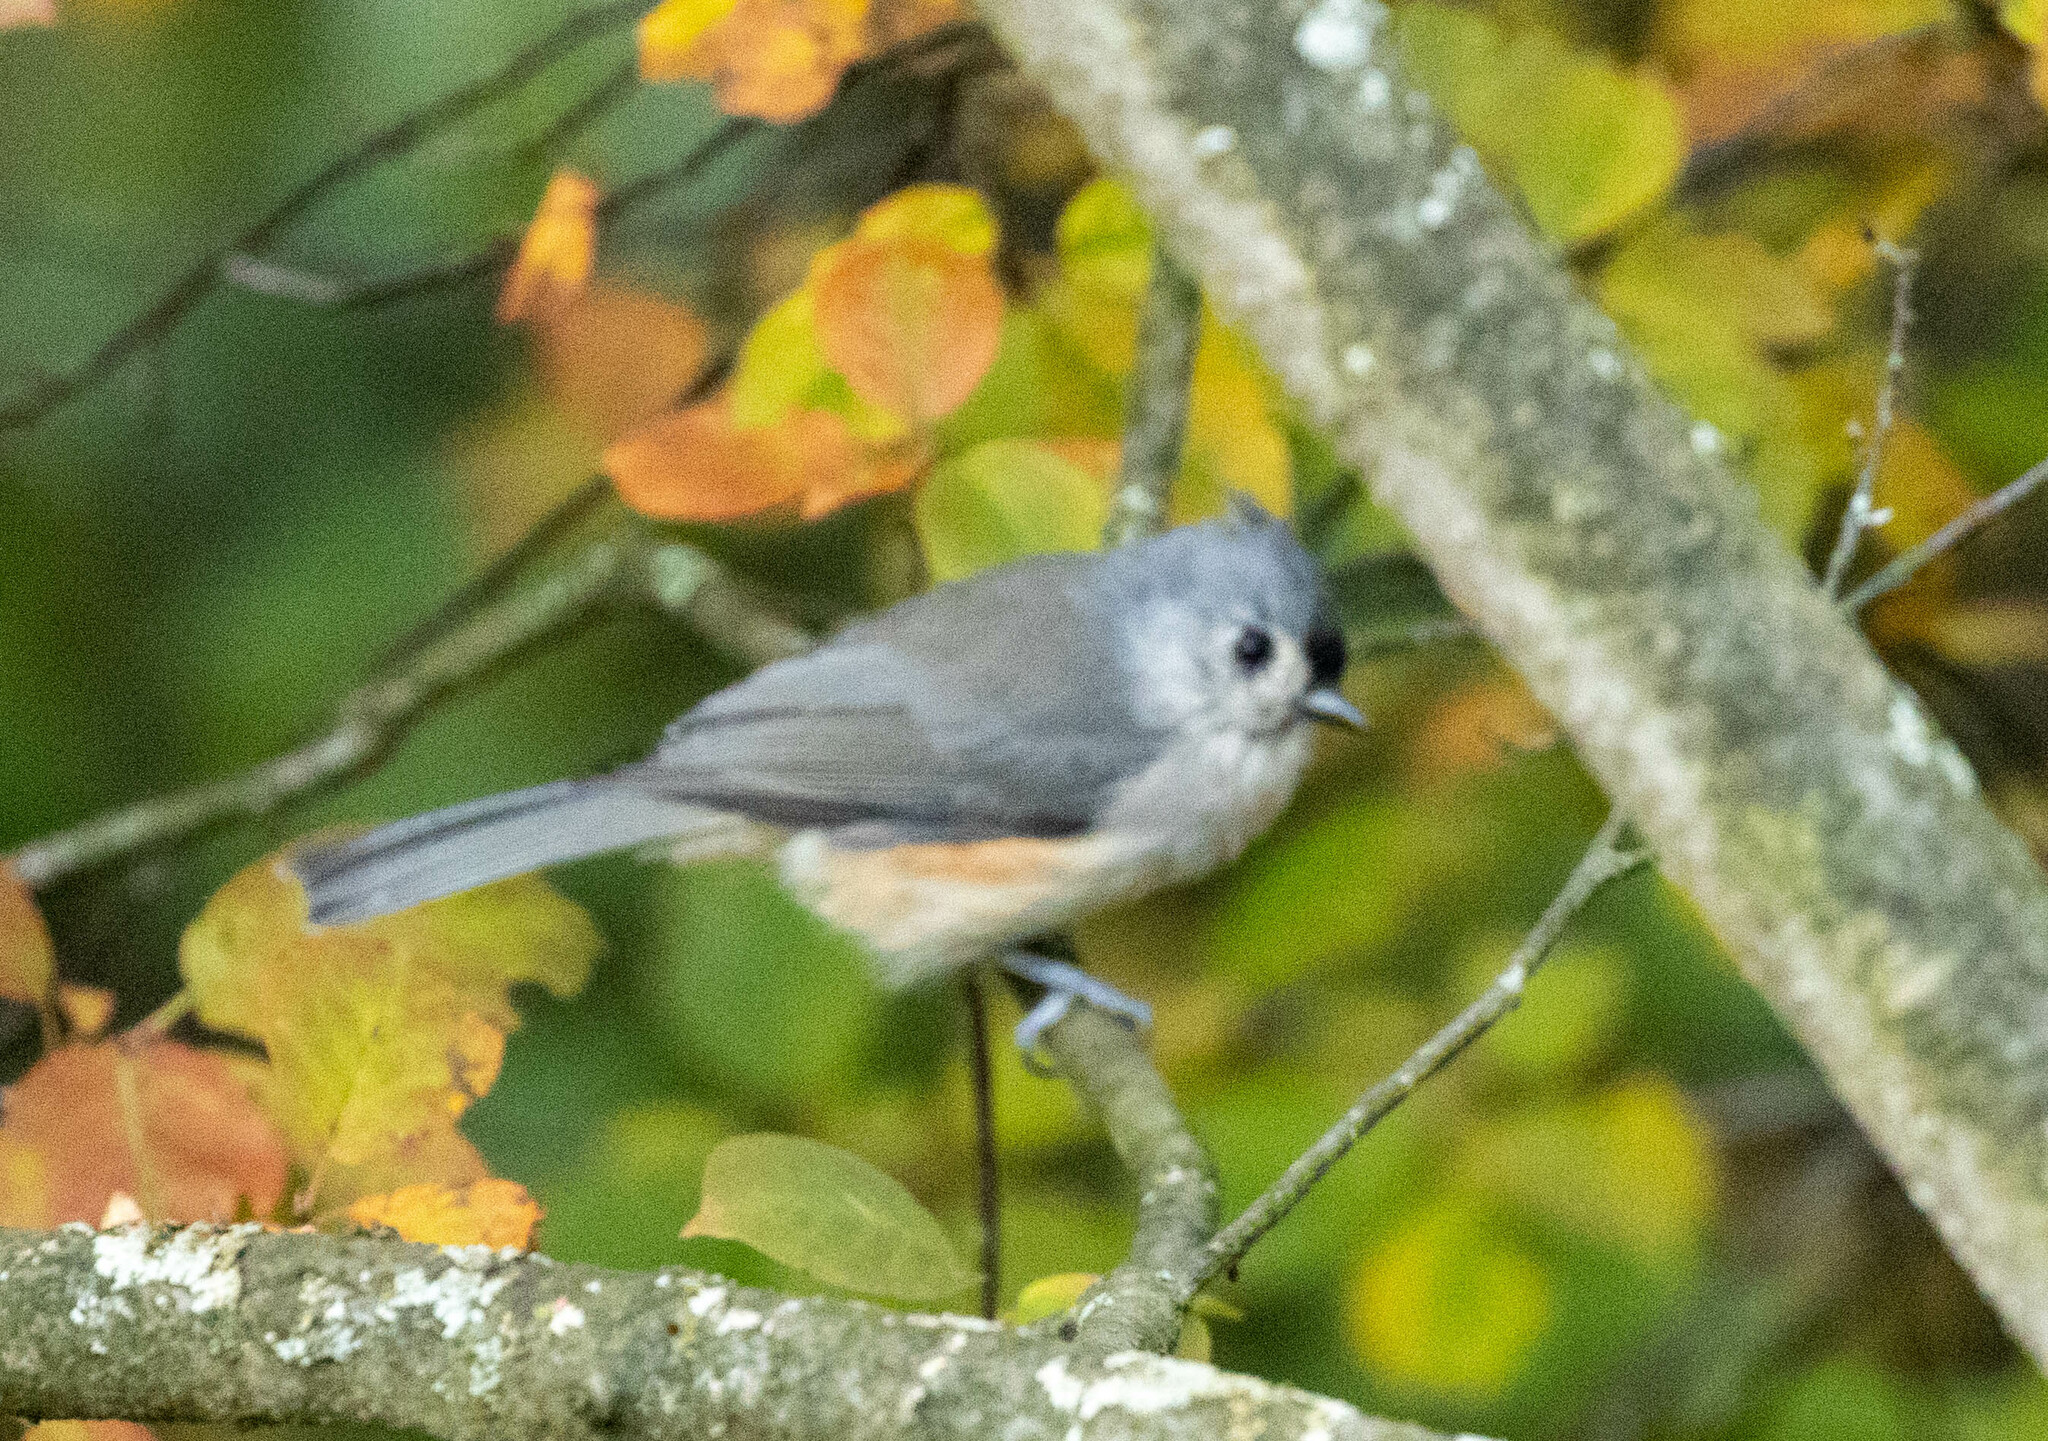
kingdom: Animalia
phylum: Chordata
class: Aves
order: Passeriformes
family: Paridae
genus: Baeolophus
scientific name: Baeolophus bicolor
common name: Tufted titmouse
